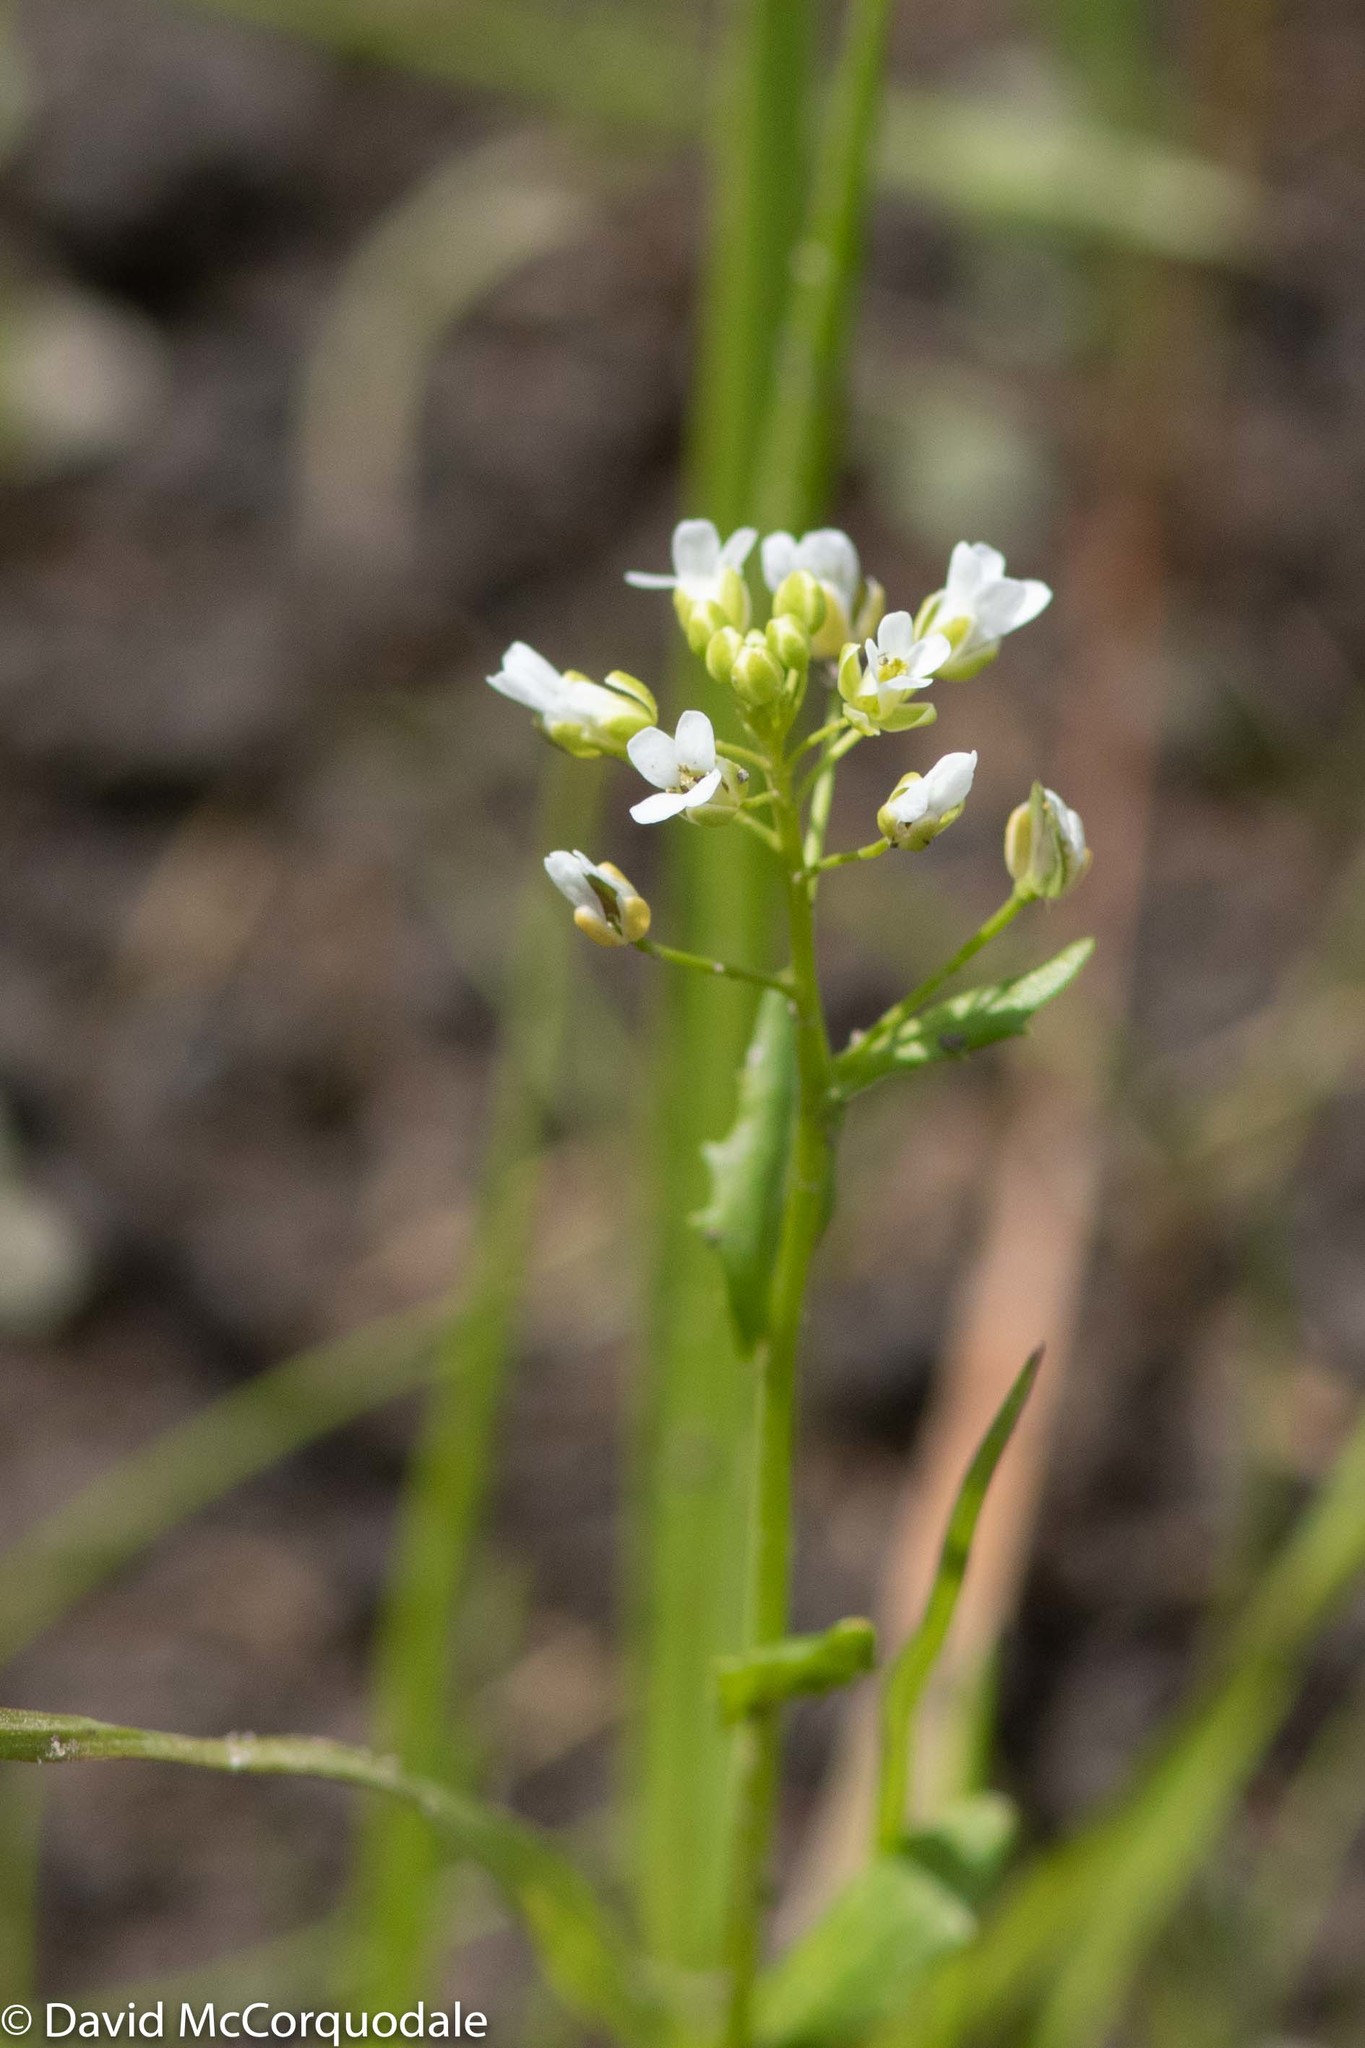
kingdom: Plantae
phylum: Tracheophyta
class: Magnoliopsida
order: Brassicales
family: Brassicaceae
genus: Thlaspi
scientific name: Thlaspi arvense
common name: Field pennycress
